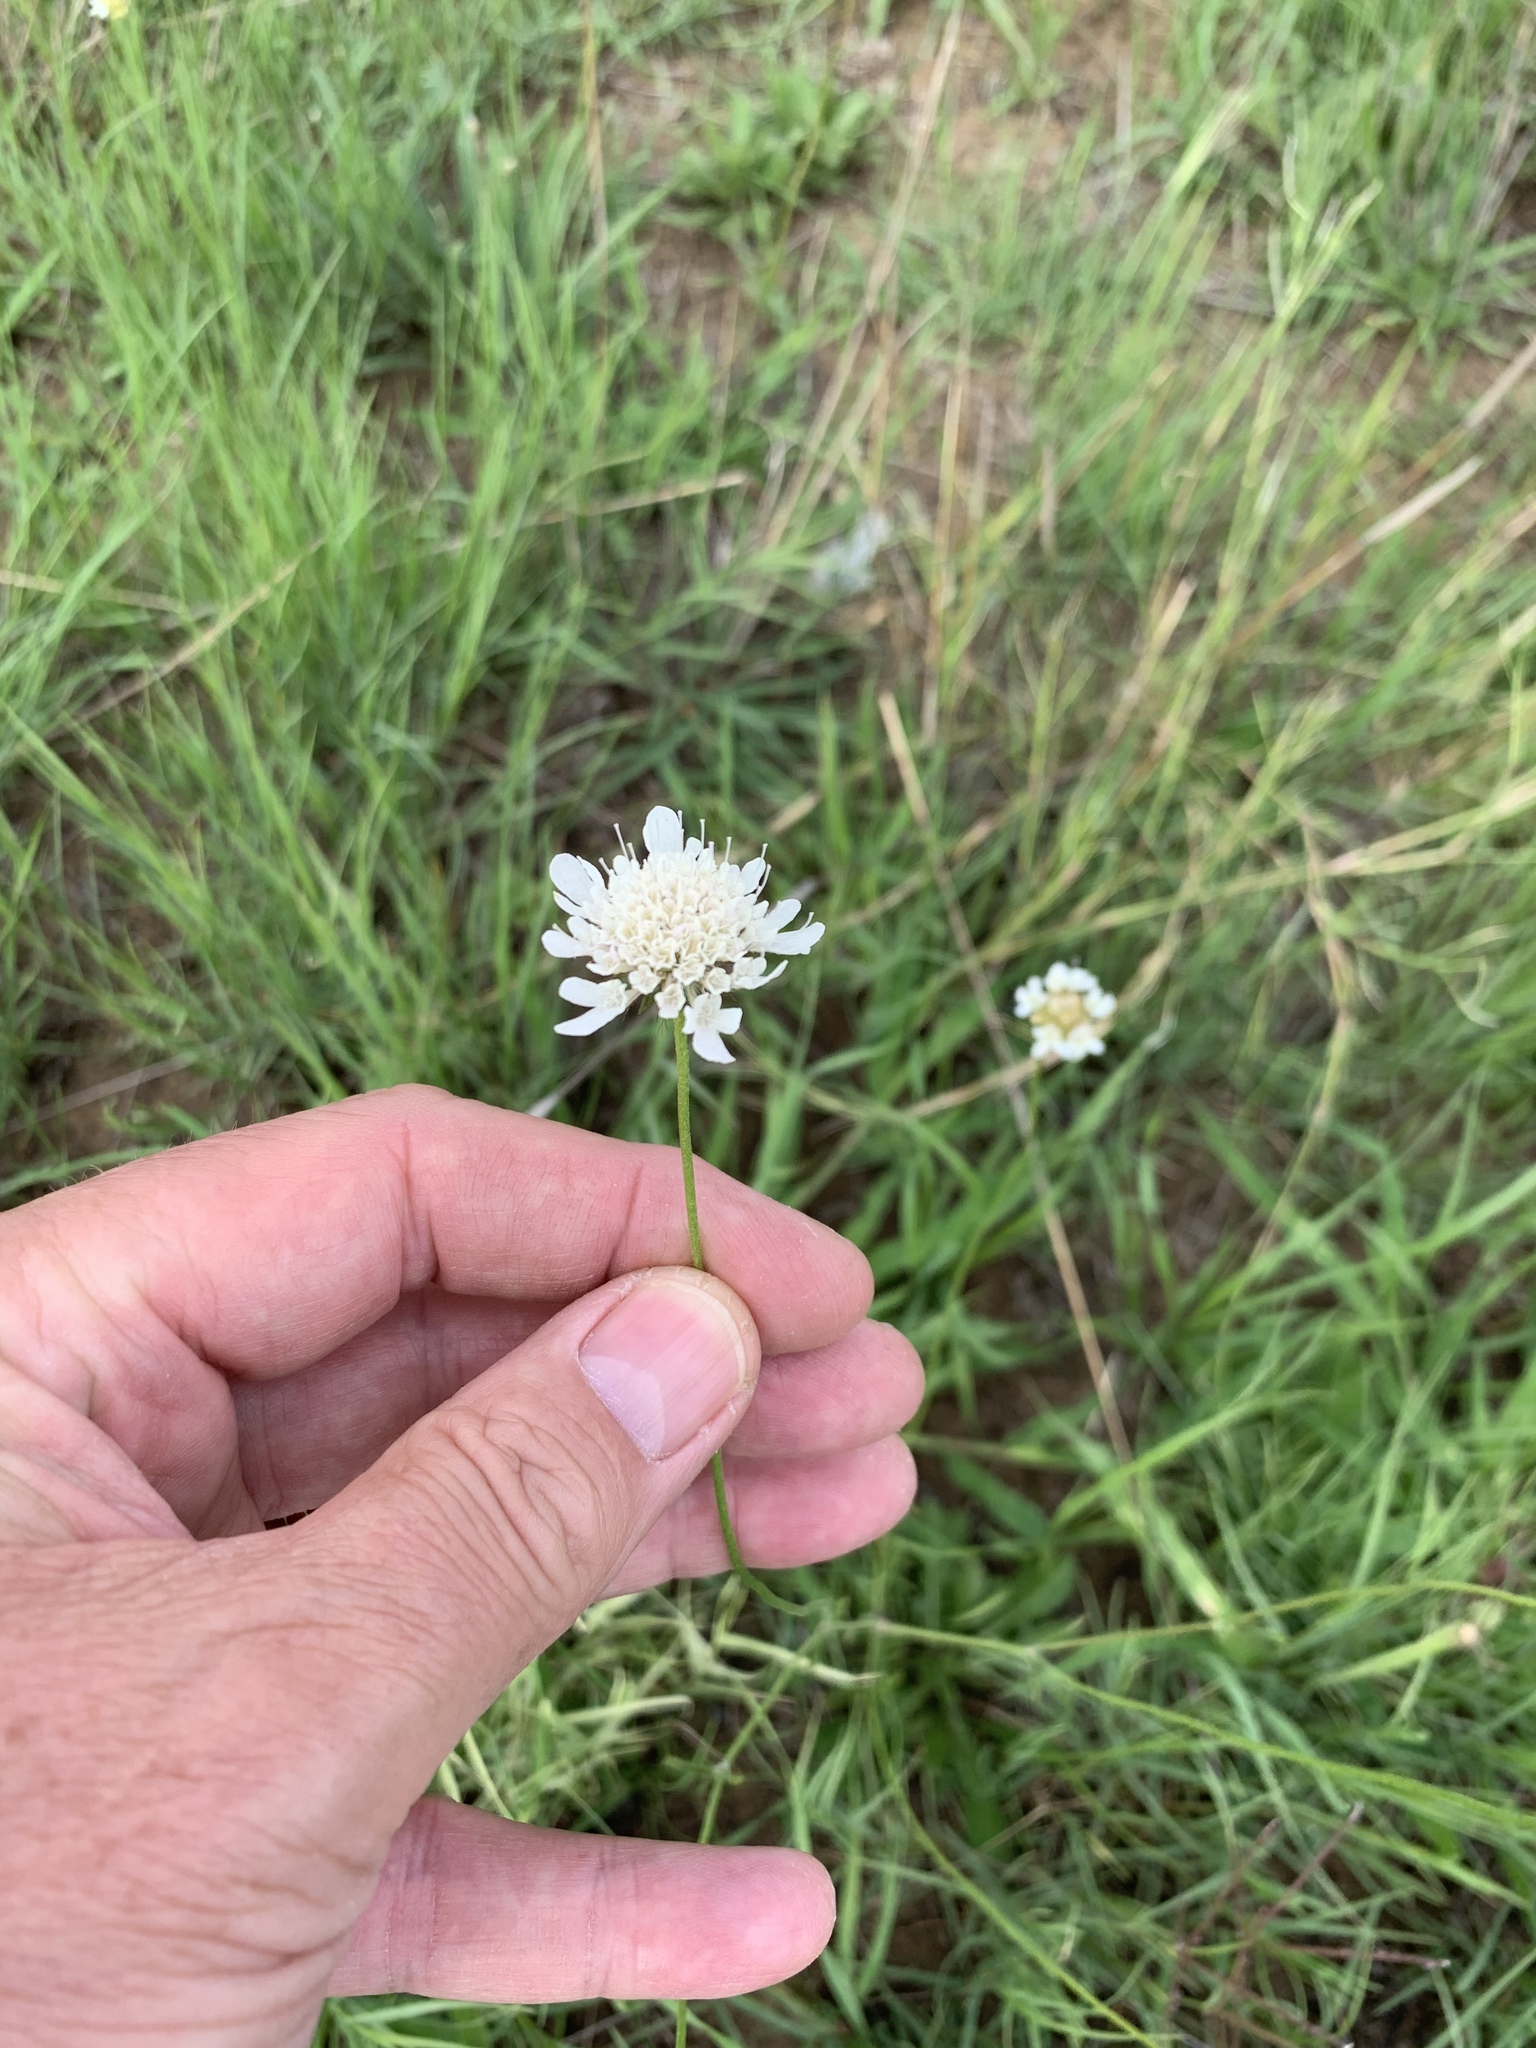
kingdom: Plantae
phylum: Tracheophyta
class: Magnoliopsida
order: Dipsacales
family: Caprifoliaceae
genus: Scabiosa
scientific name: Scabiosa columbaria
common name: Small scabious
